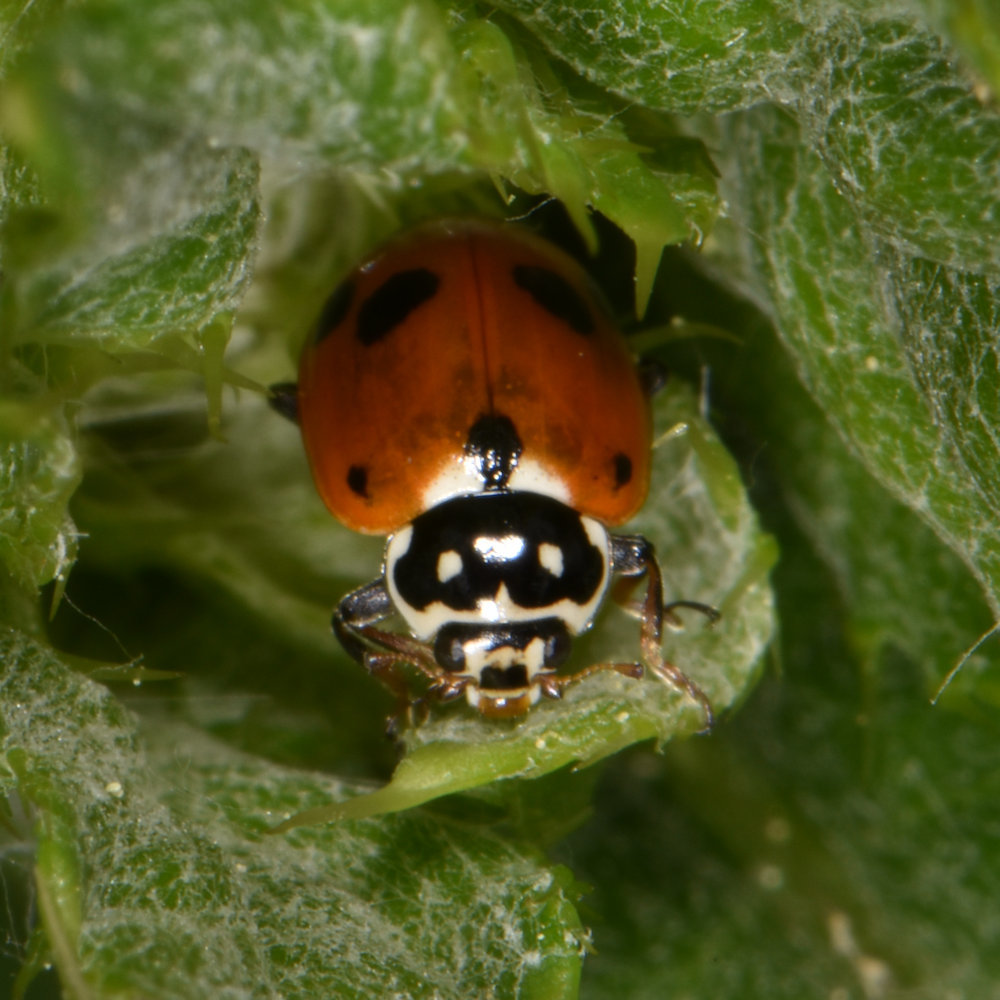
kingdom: Animalia
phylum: Arthropoda
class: Insecta
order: Coleoptera
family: Coccinellidae
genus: Hippodamia
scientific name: Hippodamia variegata
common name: Ladybird beetle
